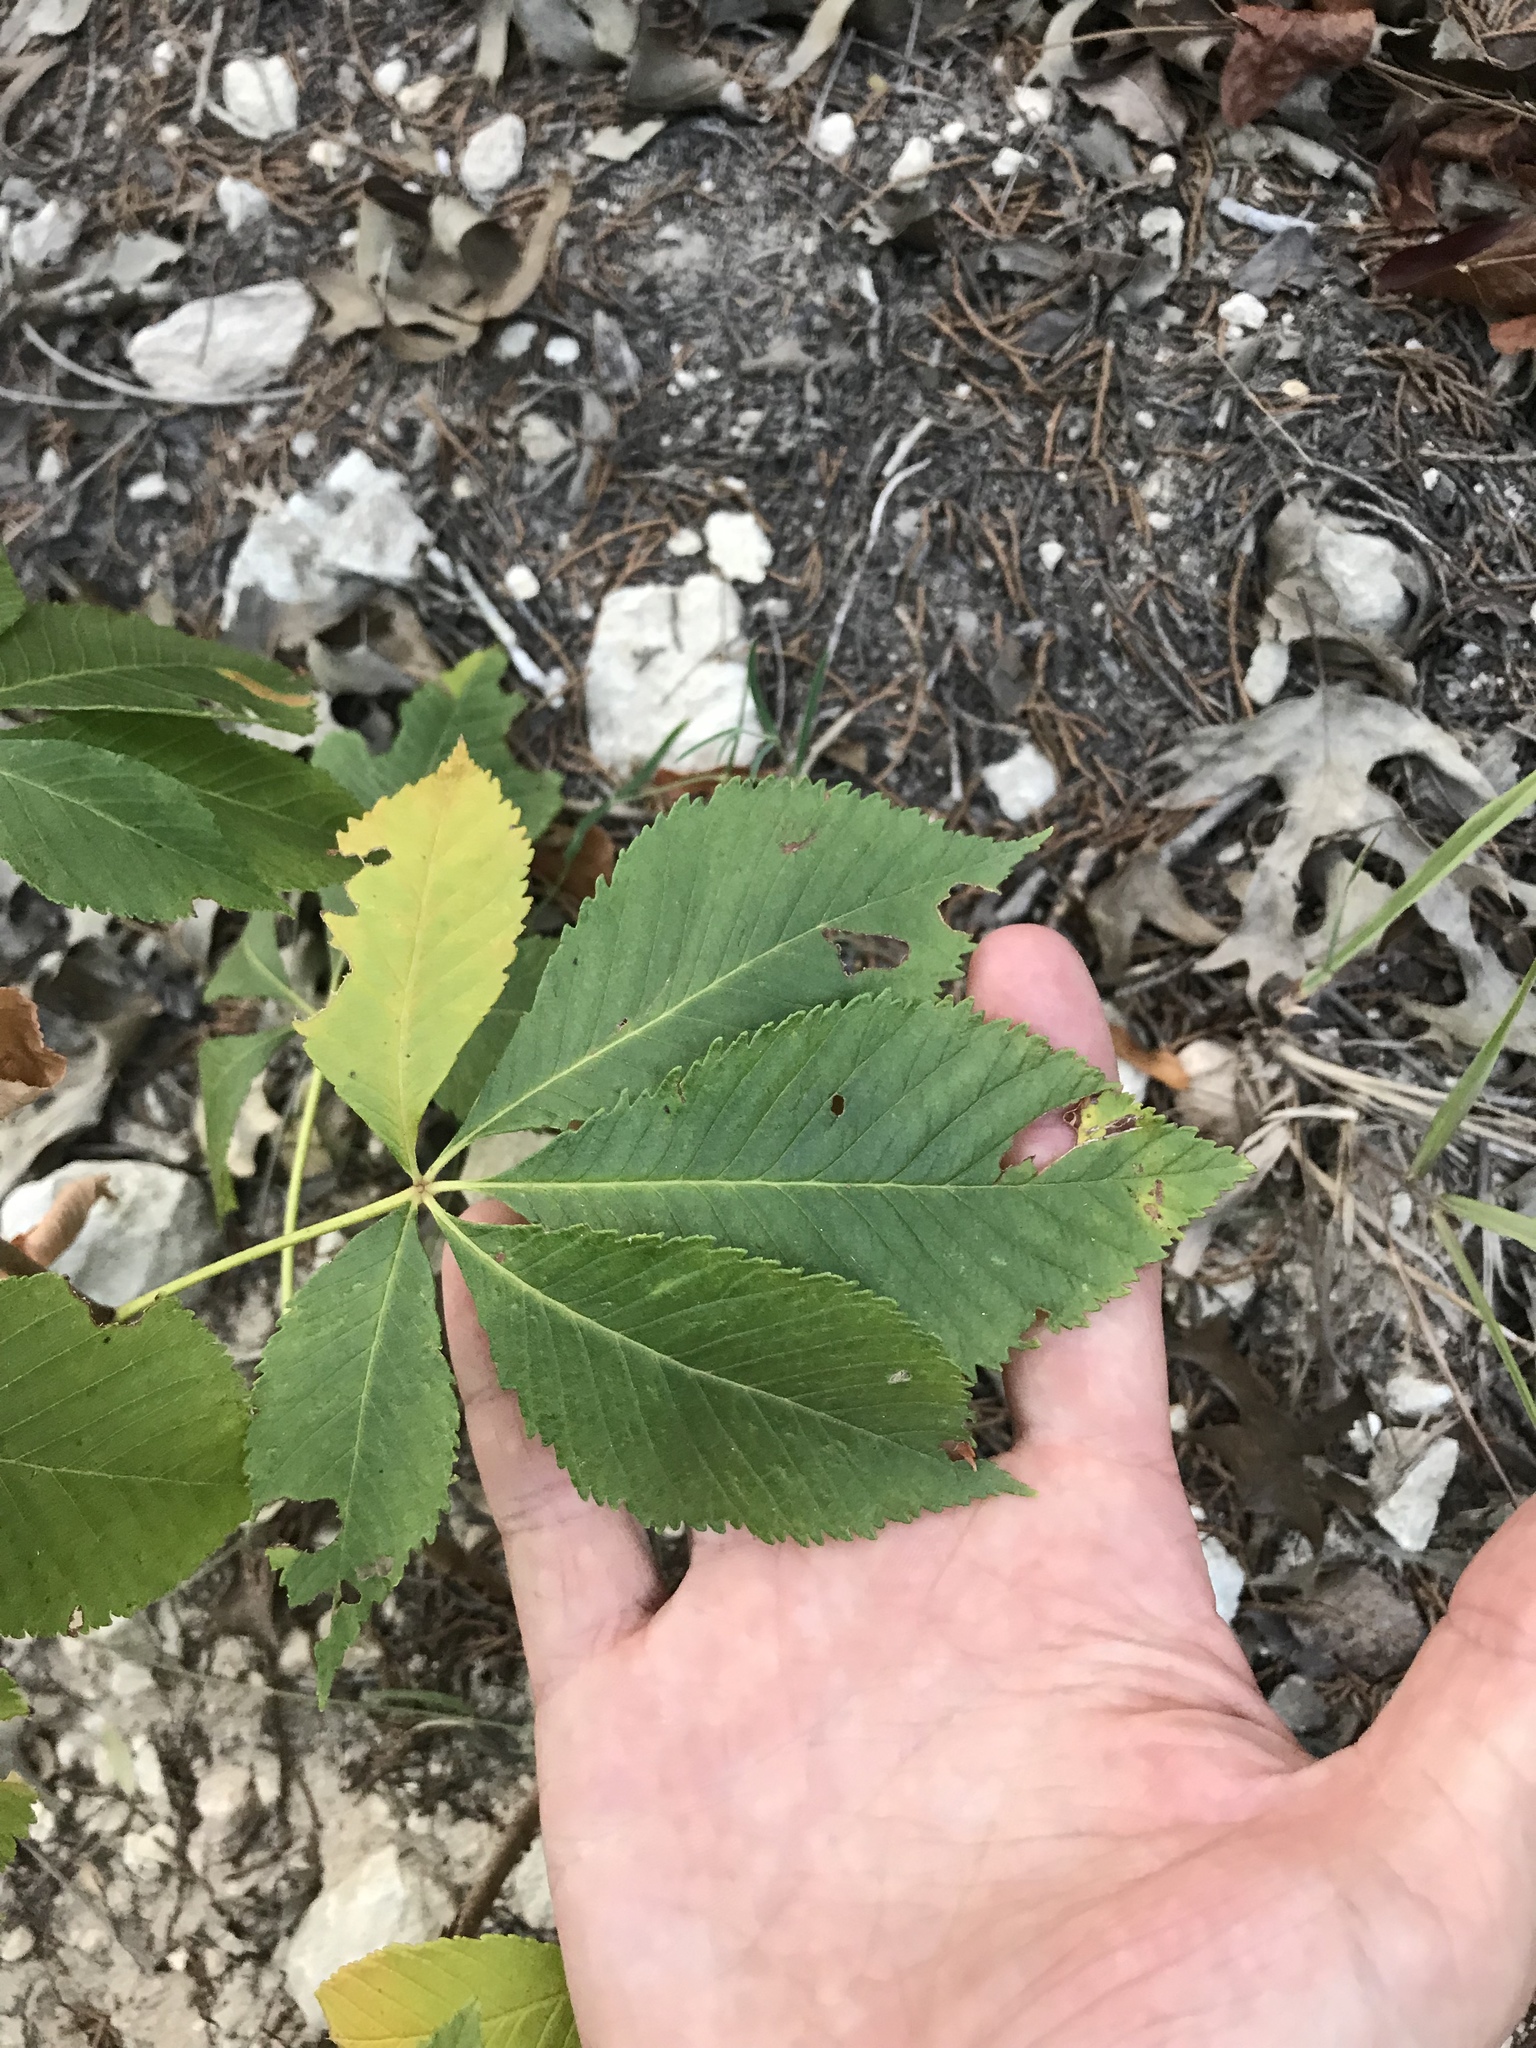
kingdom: Plantae
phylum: Tracheophyta
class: Magnoliopsida
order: Sapindales
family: Sapindaceae
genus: Aesculus
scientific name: Aesculus pavia
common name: Red buckeye
